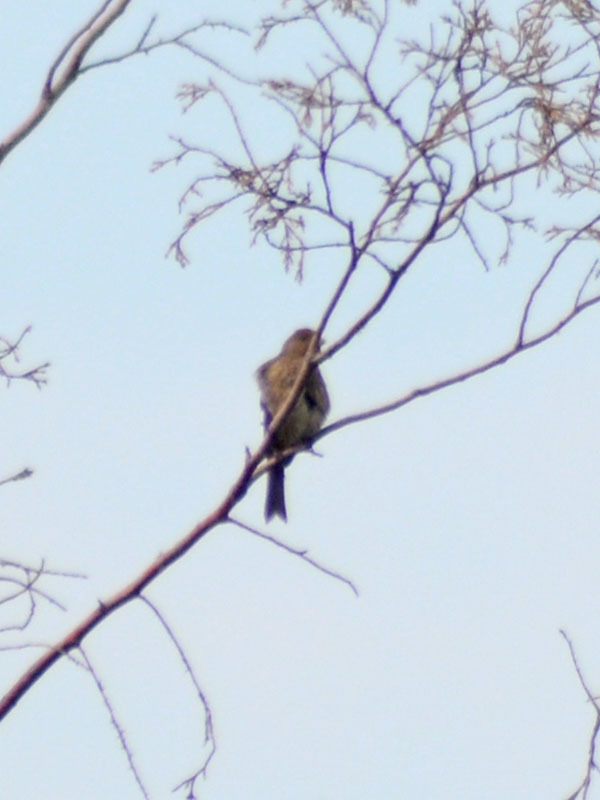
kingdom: Animalia
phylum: Chordata
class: Aves
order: Passeriformes
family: Passerellidae
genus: Melozone
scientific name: Melozone fusca
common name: Canyon towhee
